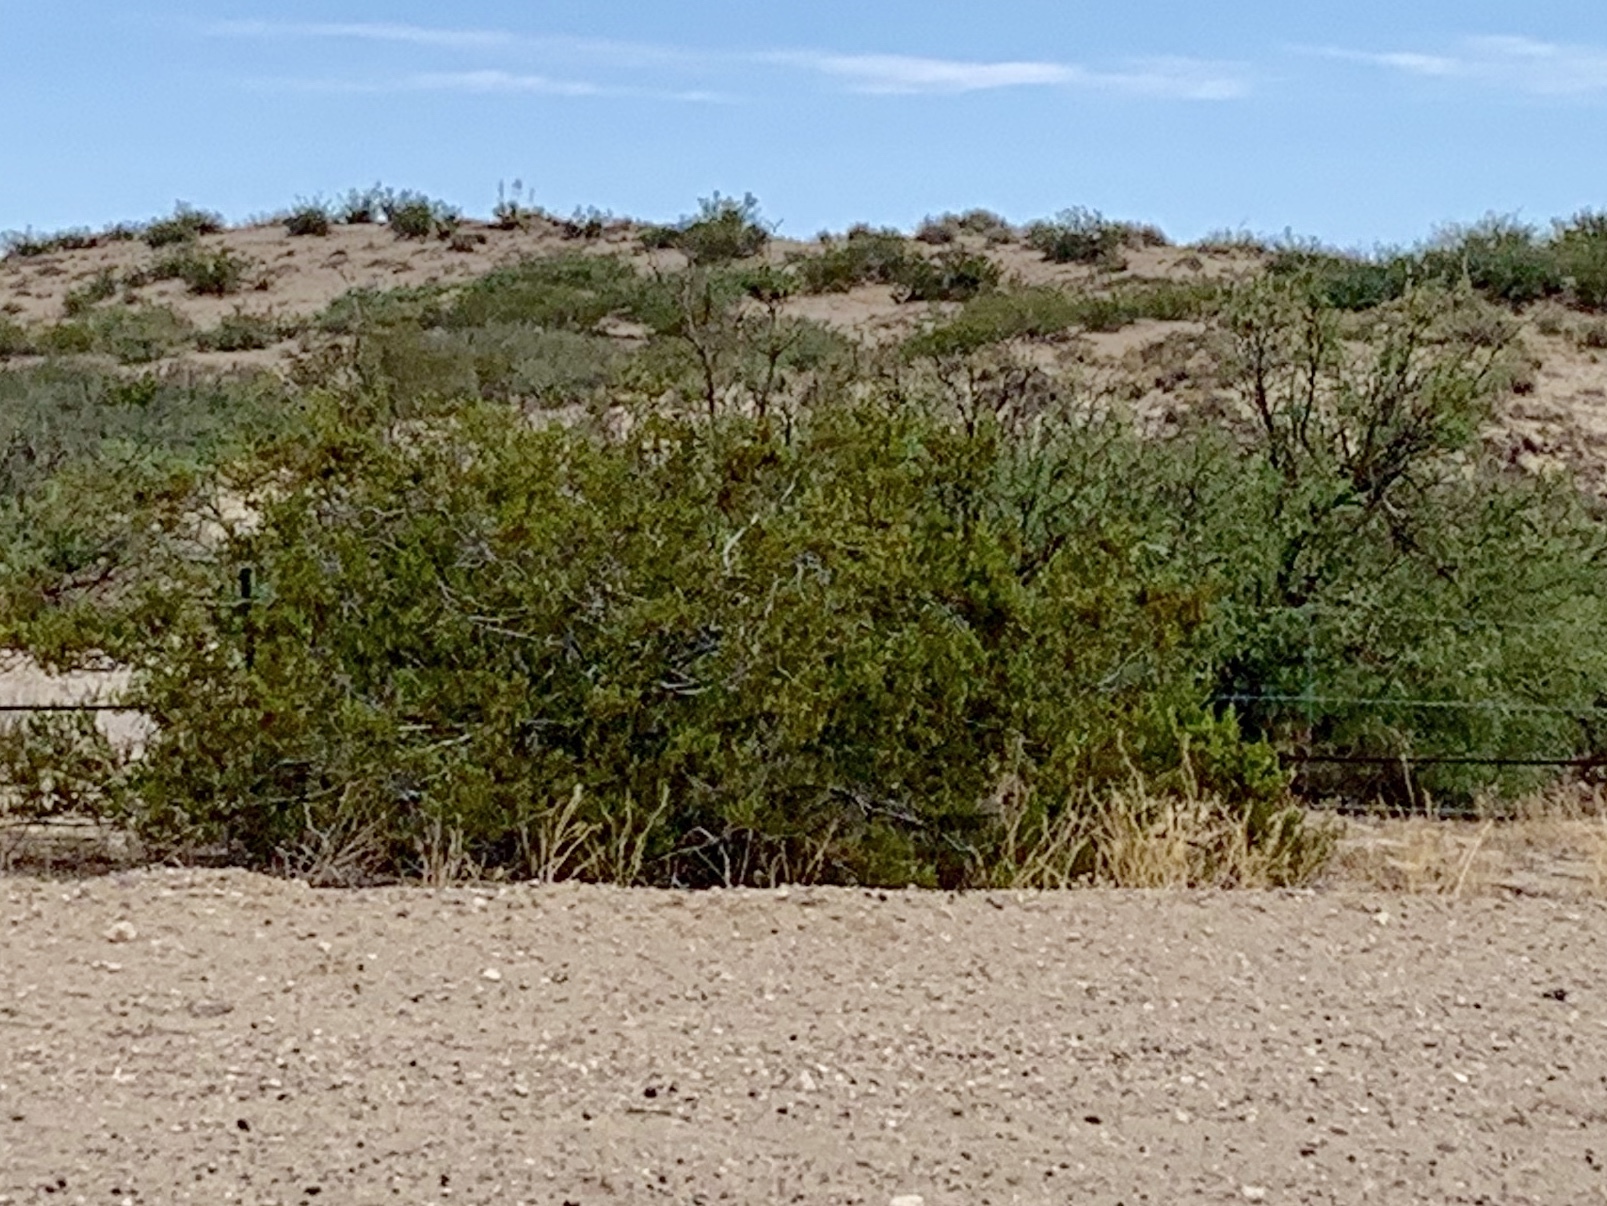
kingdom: Plantae
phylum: Tracheophyta
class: Magnoliopsida
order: Zygophyllales
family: Zygophyllaceae
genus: Larrea
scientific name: Larrea tridentata
